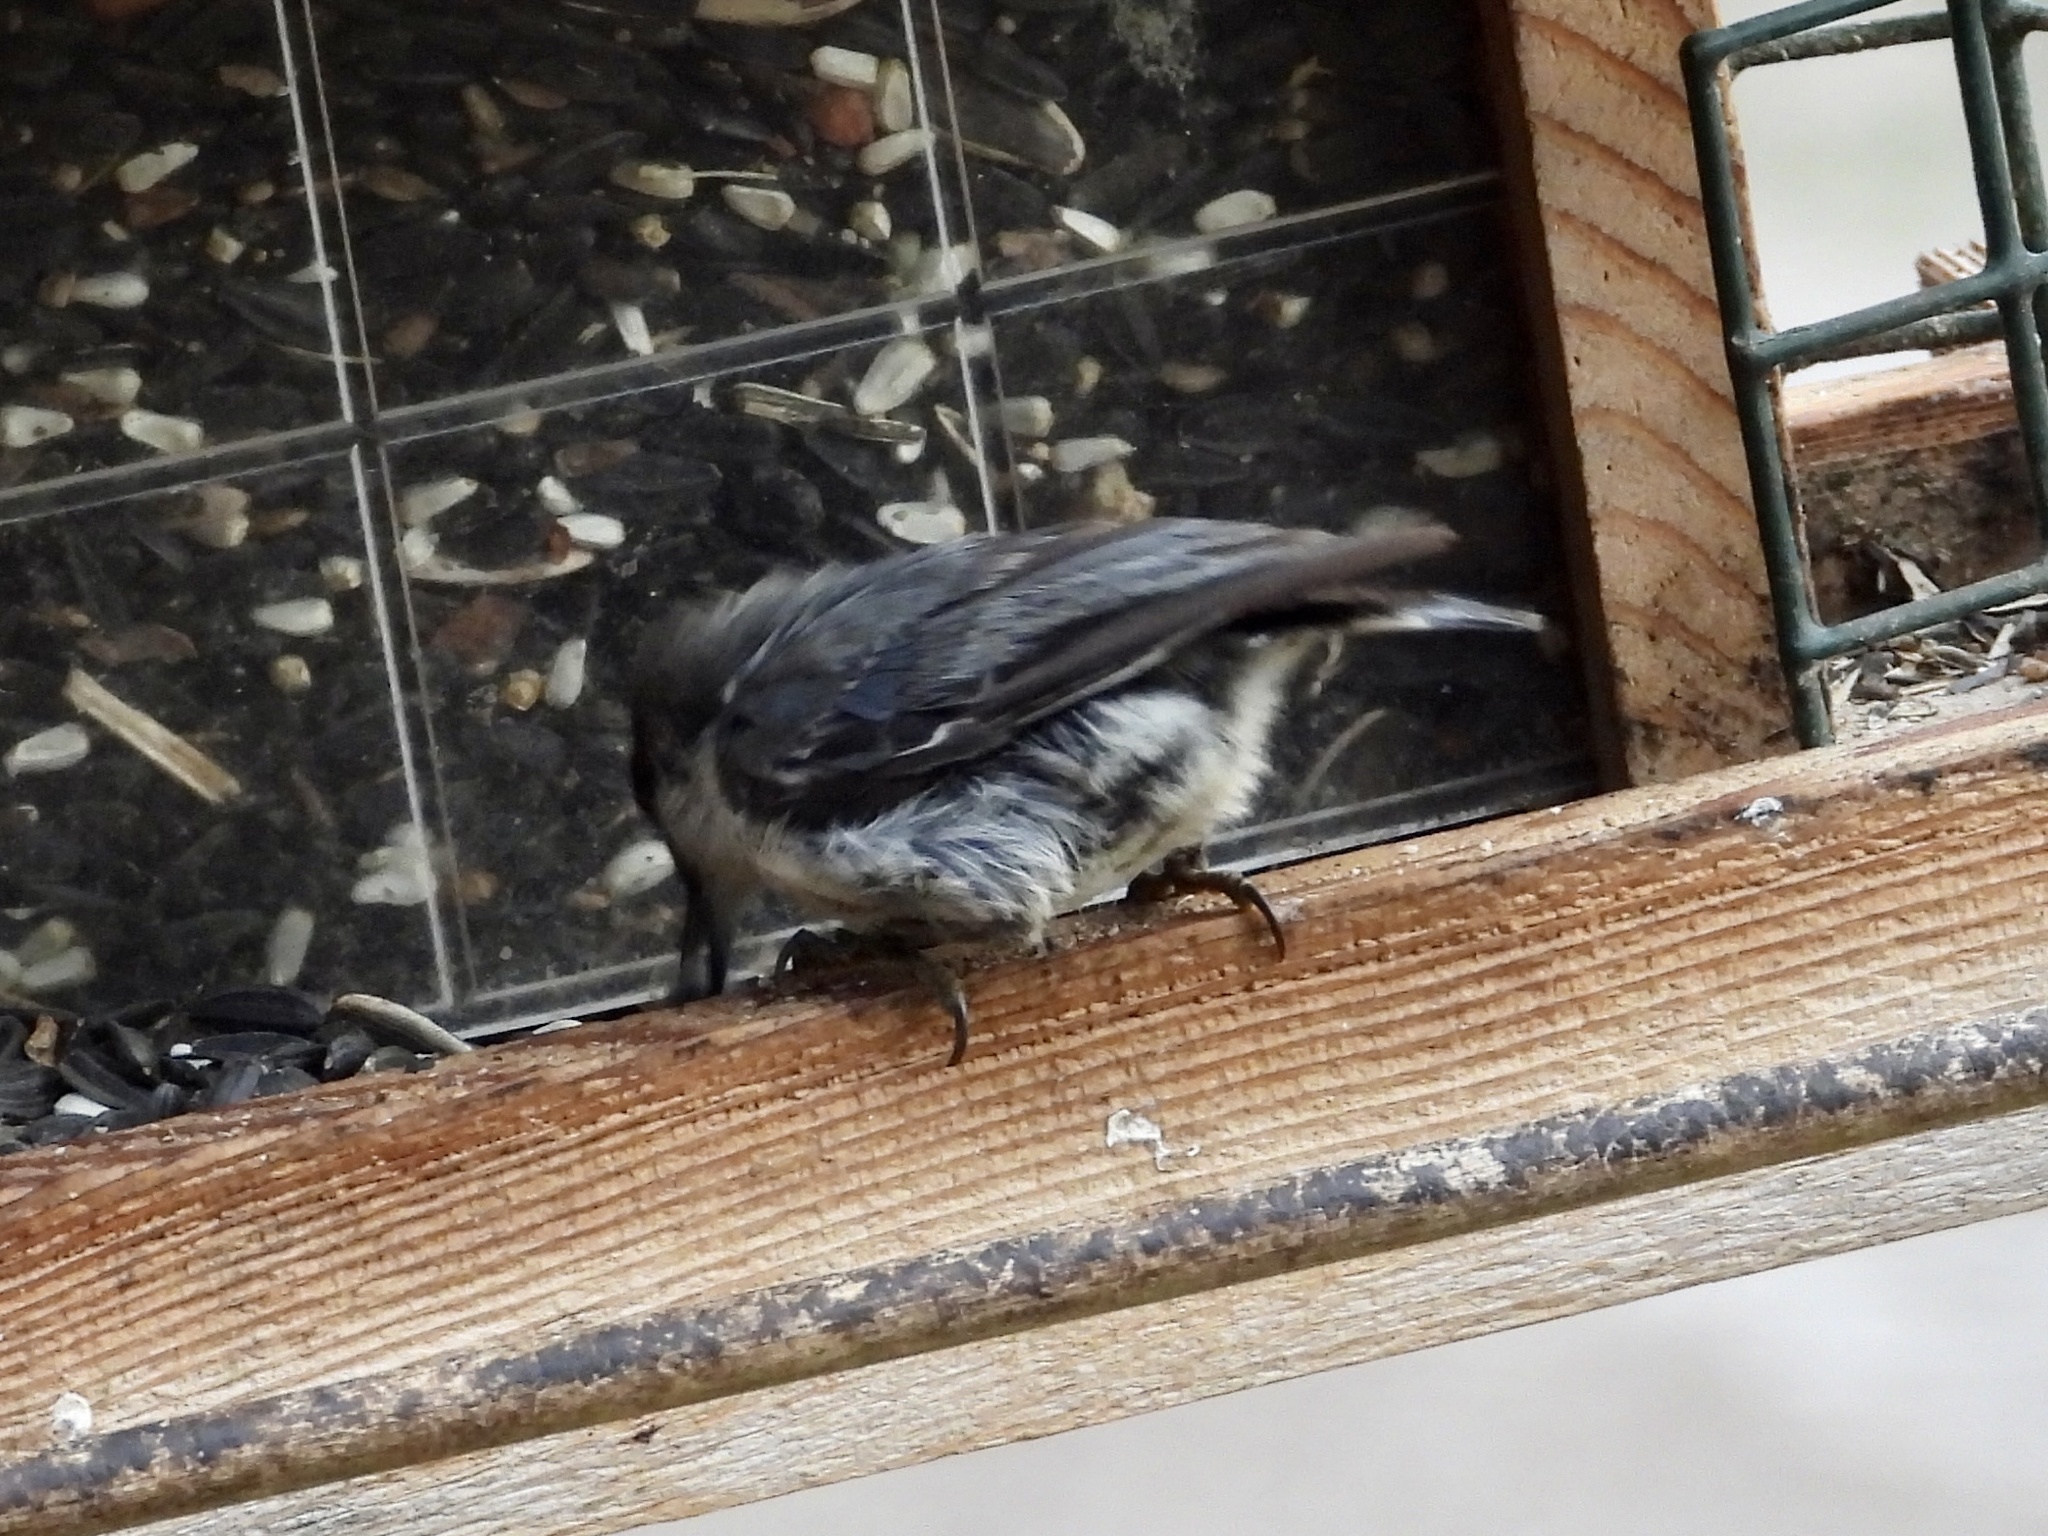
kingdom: Animalia
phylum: Chordata
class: Aves
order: Passeriformes
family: Sittidae
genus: Sitta
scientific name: Sitta pygmaea
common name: Pygmy nuthatch
